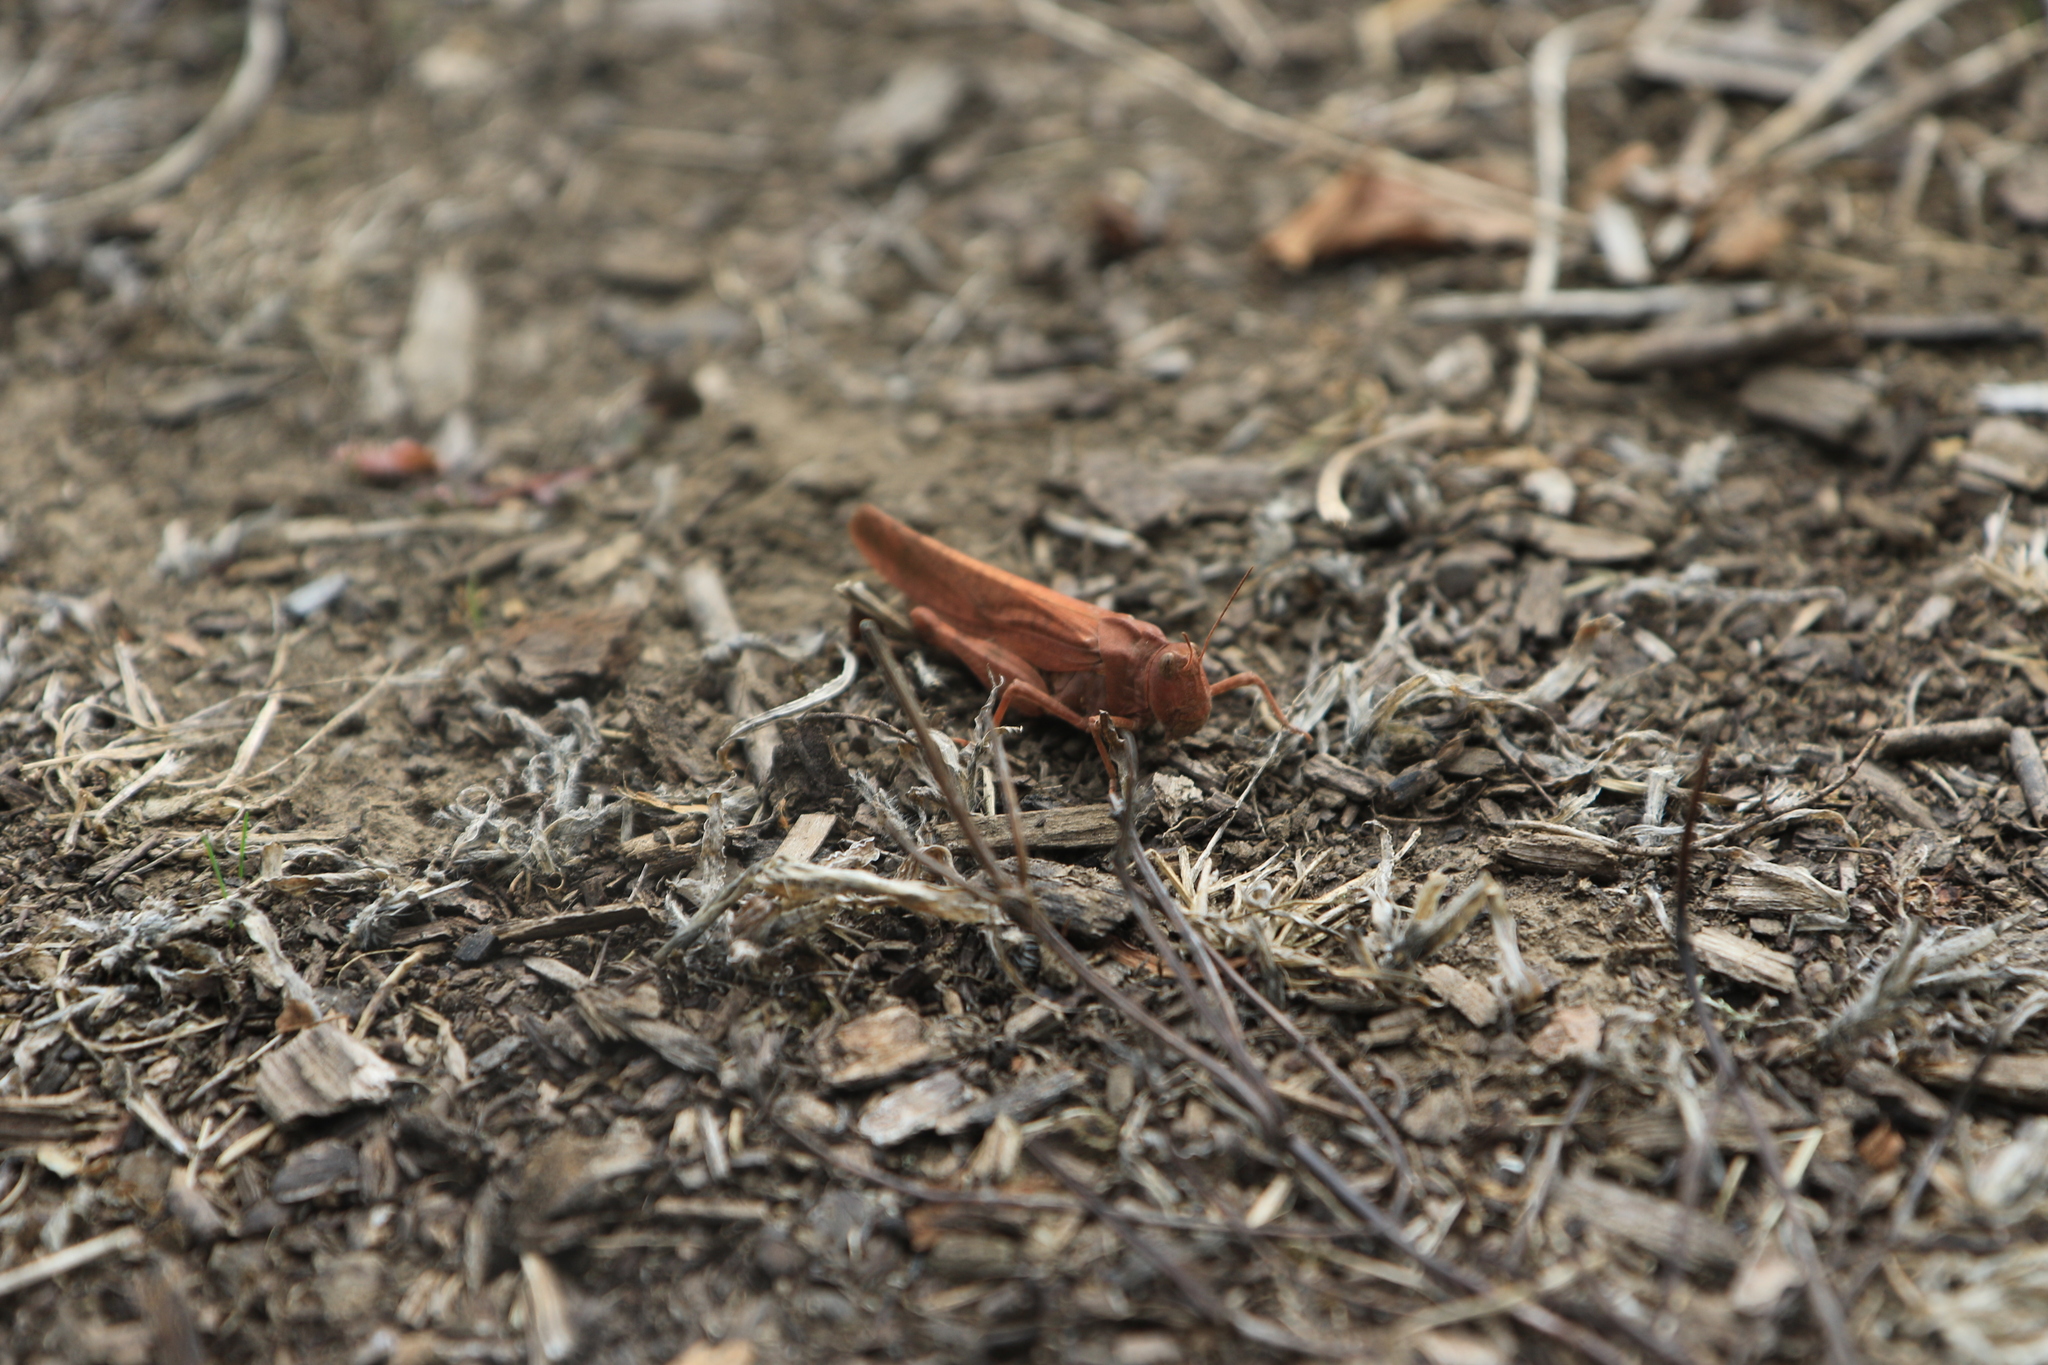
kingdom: Animalia
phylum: Arthropoda
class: Insecta
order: Orthoptera
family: Acrididae
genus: Dissosteira
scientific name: Dissosteira carolina
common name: Carolina grasshopper
